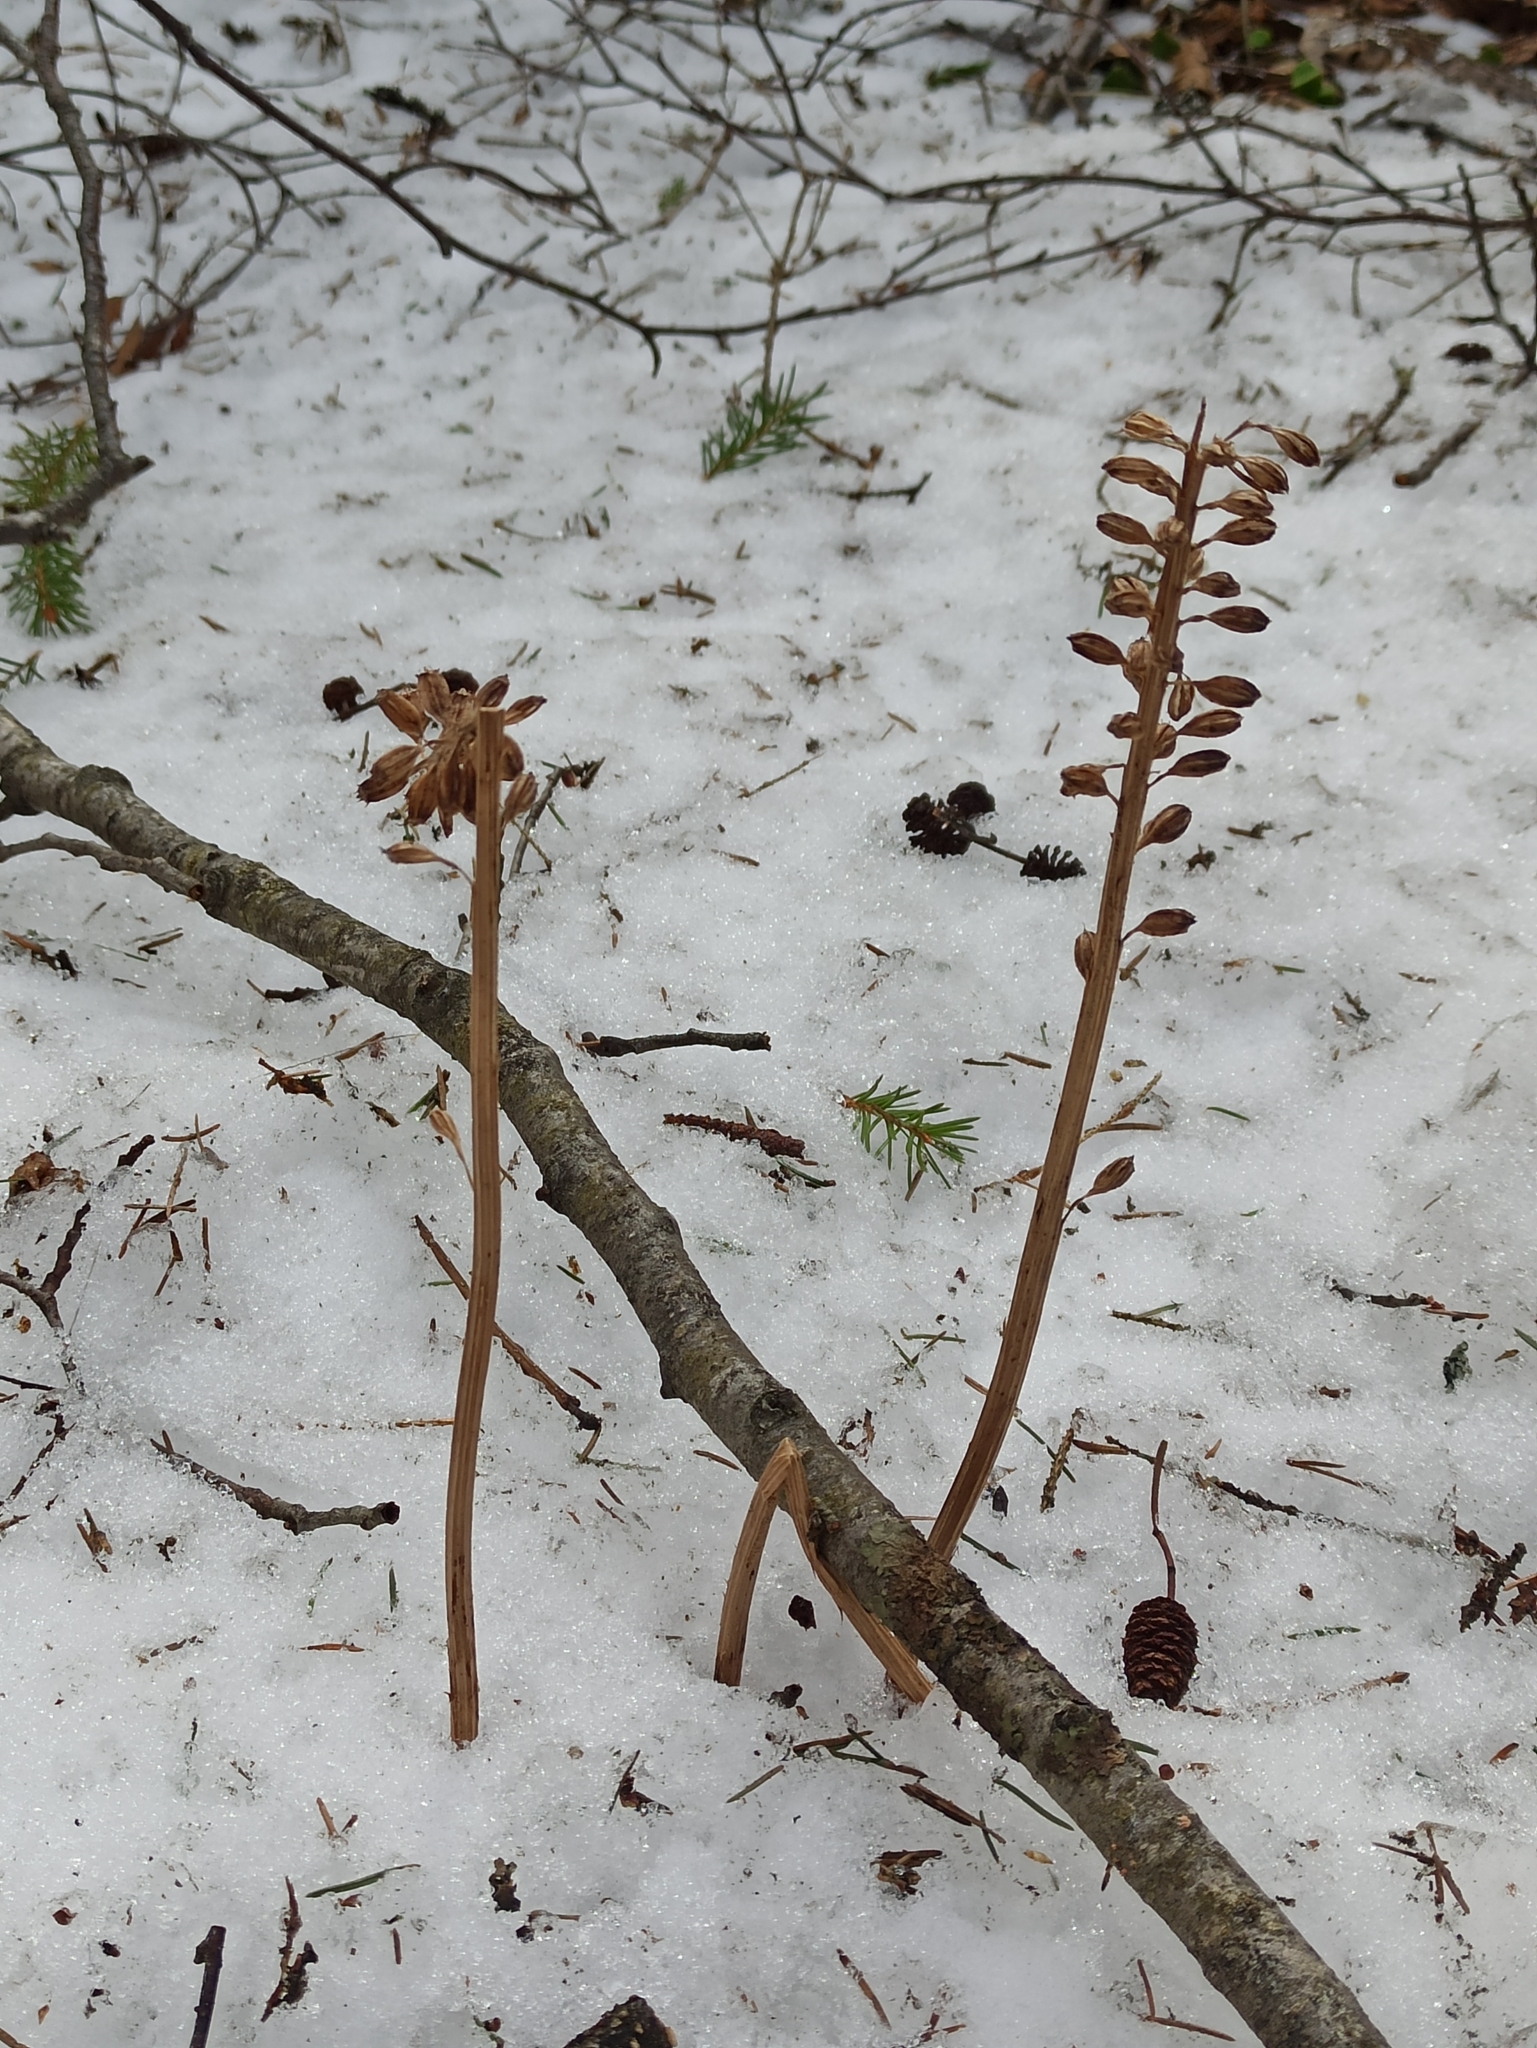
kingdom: Plantae
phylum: Tracheophyta
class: Liliopsida
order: Asparagales
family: Orchidaceae
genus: Neottia
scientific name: Neottia nidus-avis
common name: Bird's-nest orchid
